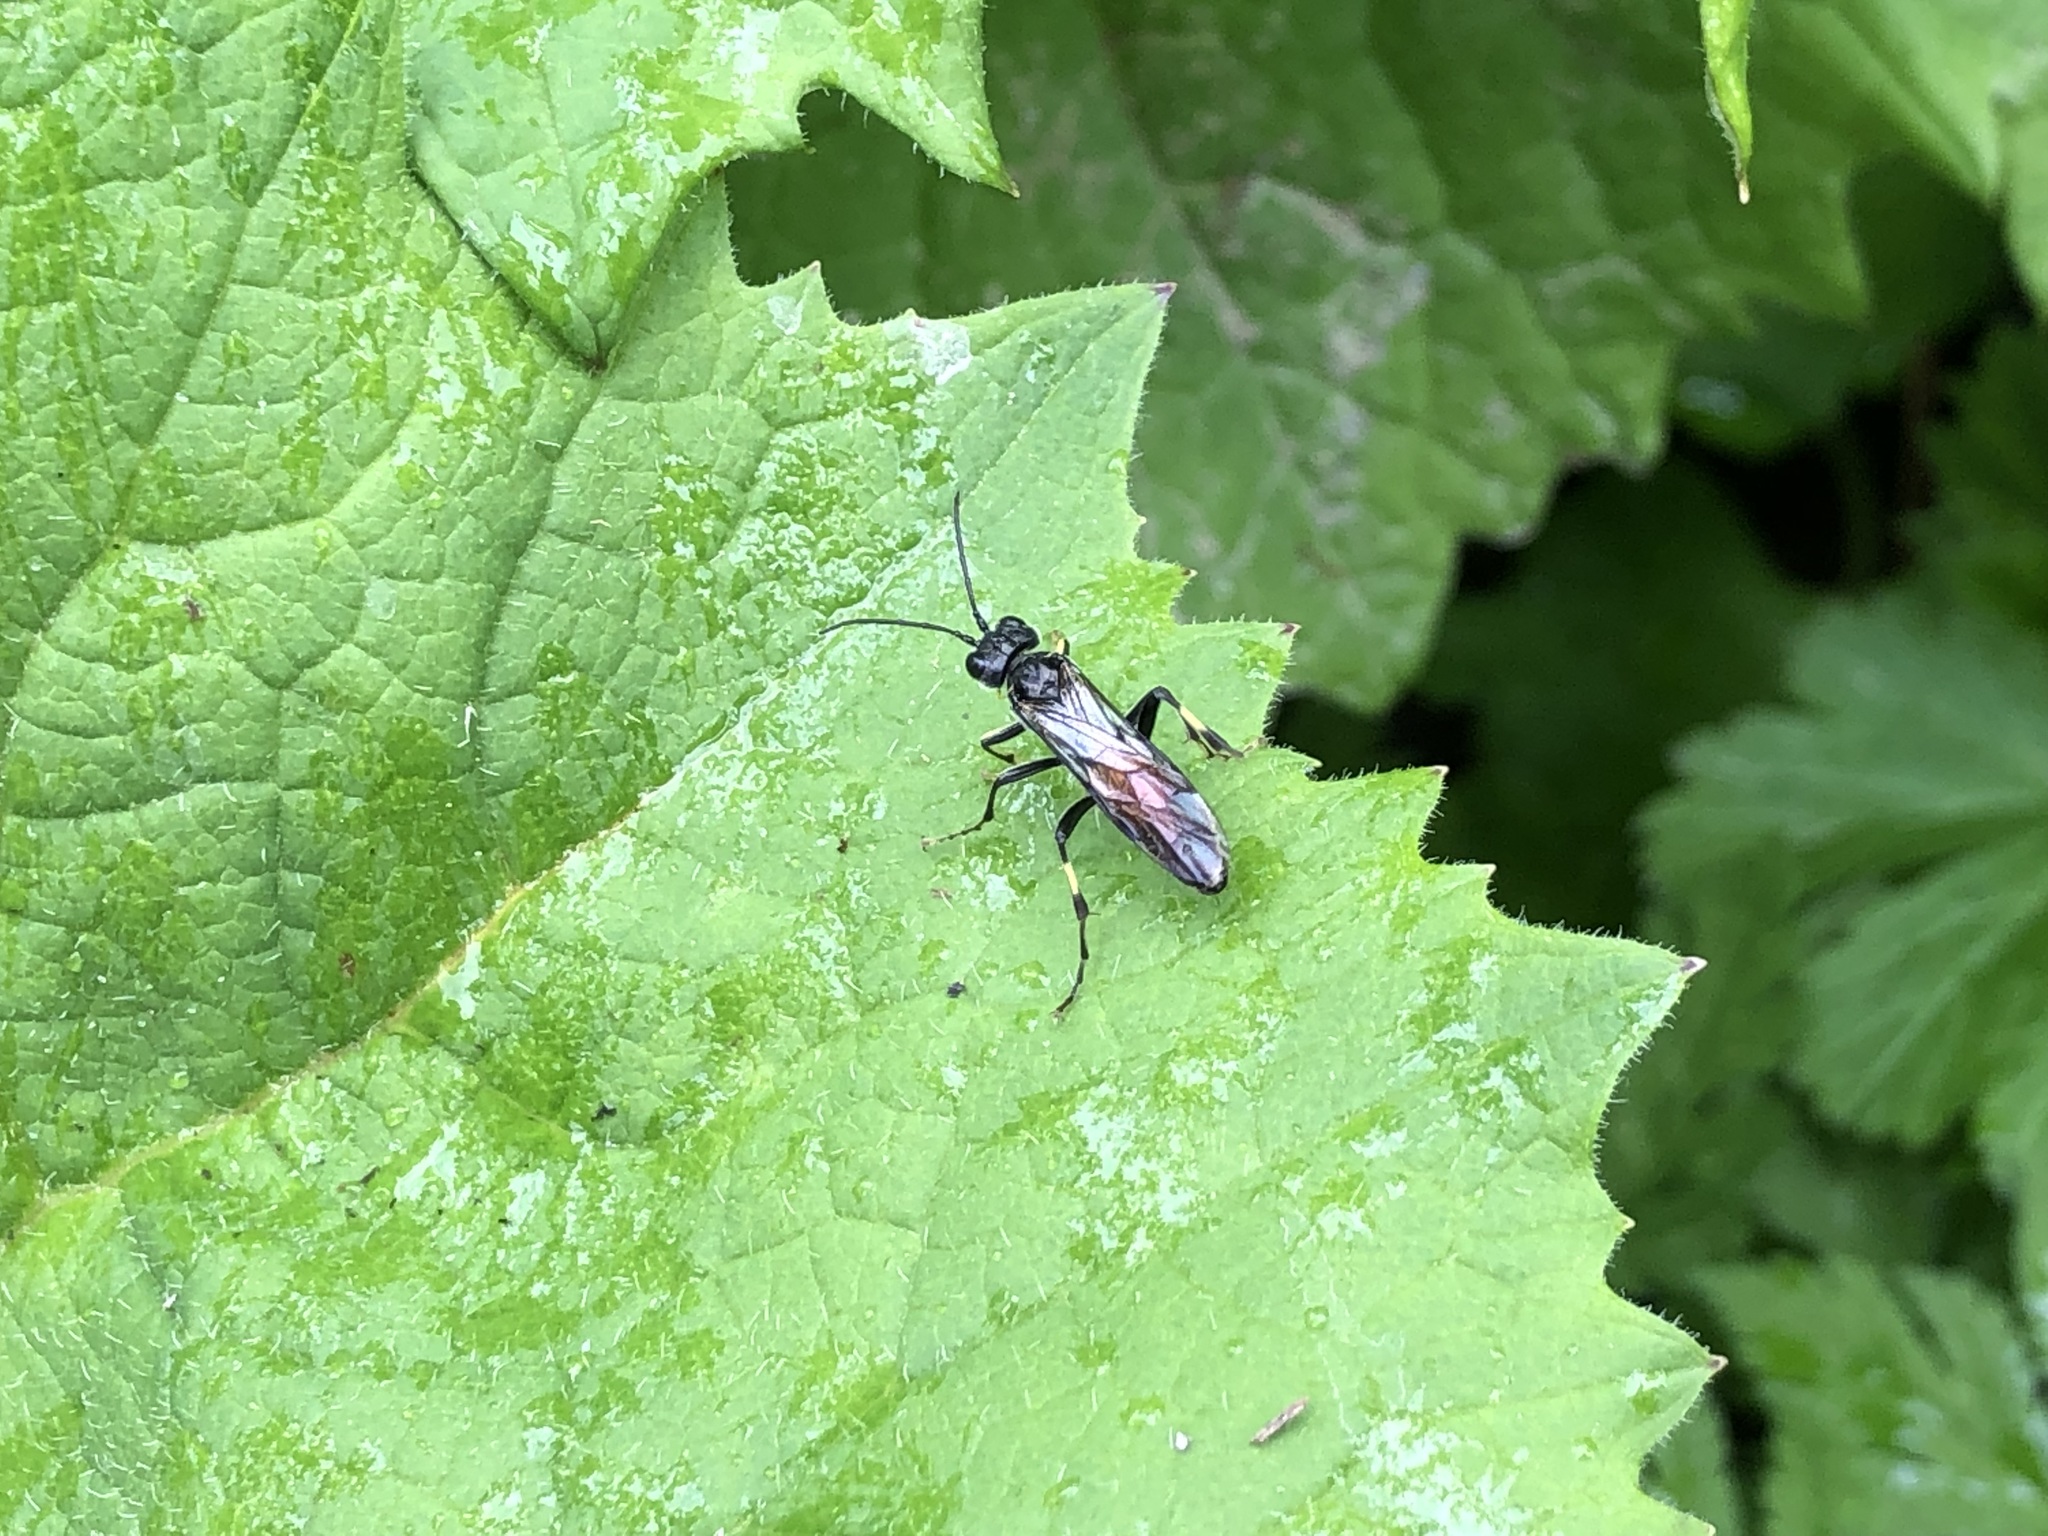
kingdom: Animalia
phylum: Arthropoda
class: Insecta
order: Hymenoptera
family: Tenthredinidae
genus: Tenthredo
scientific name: Tenthredo trabeata
